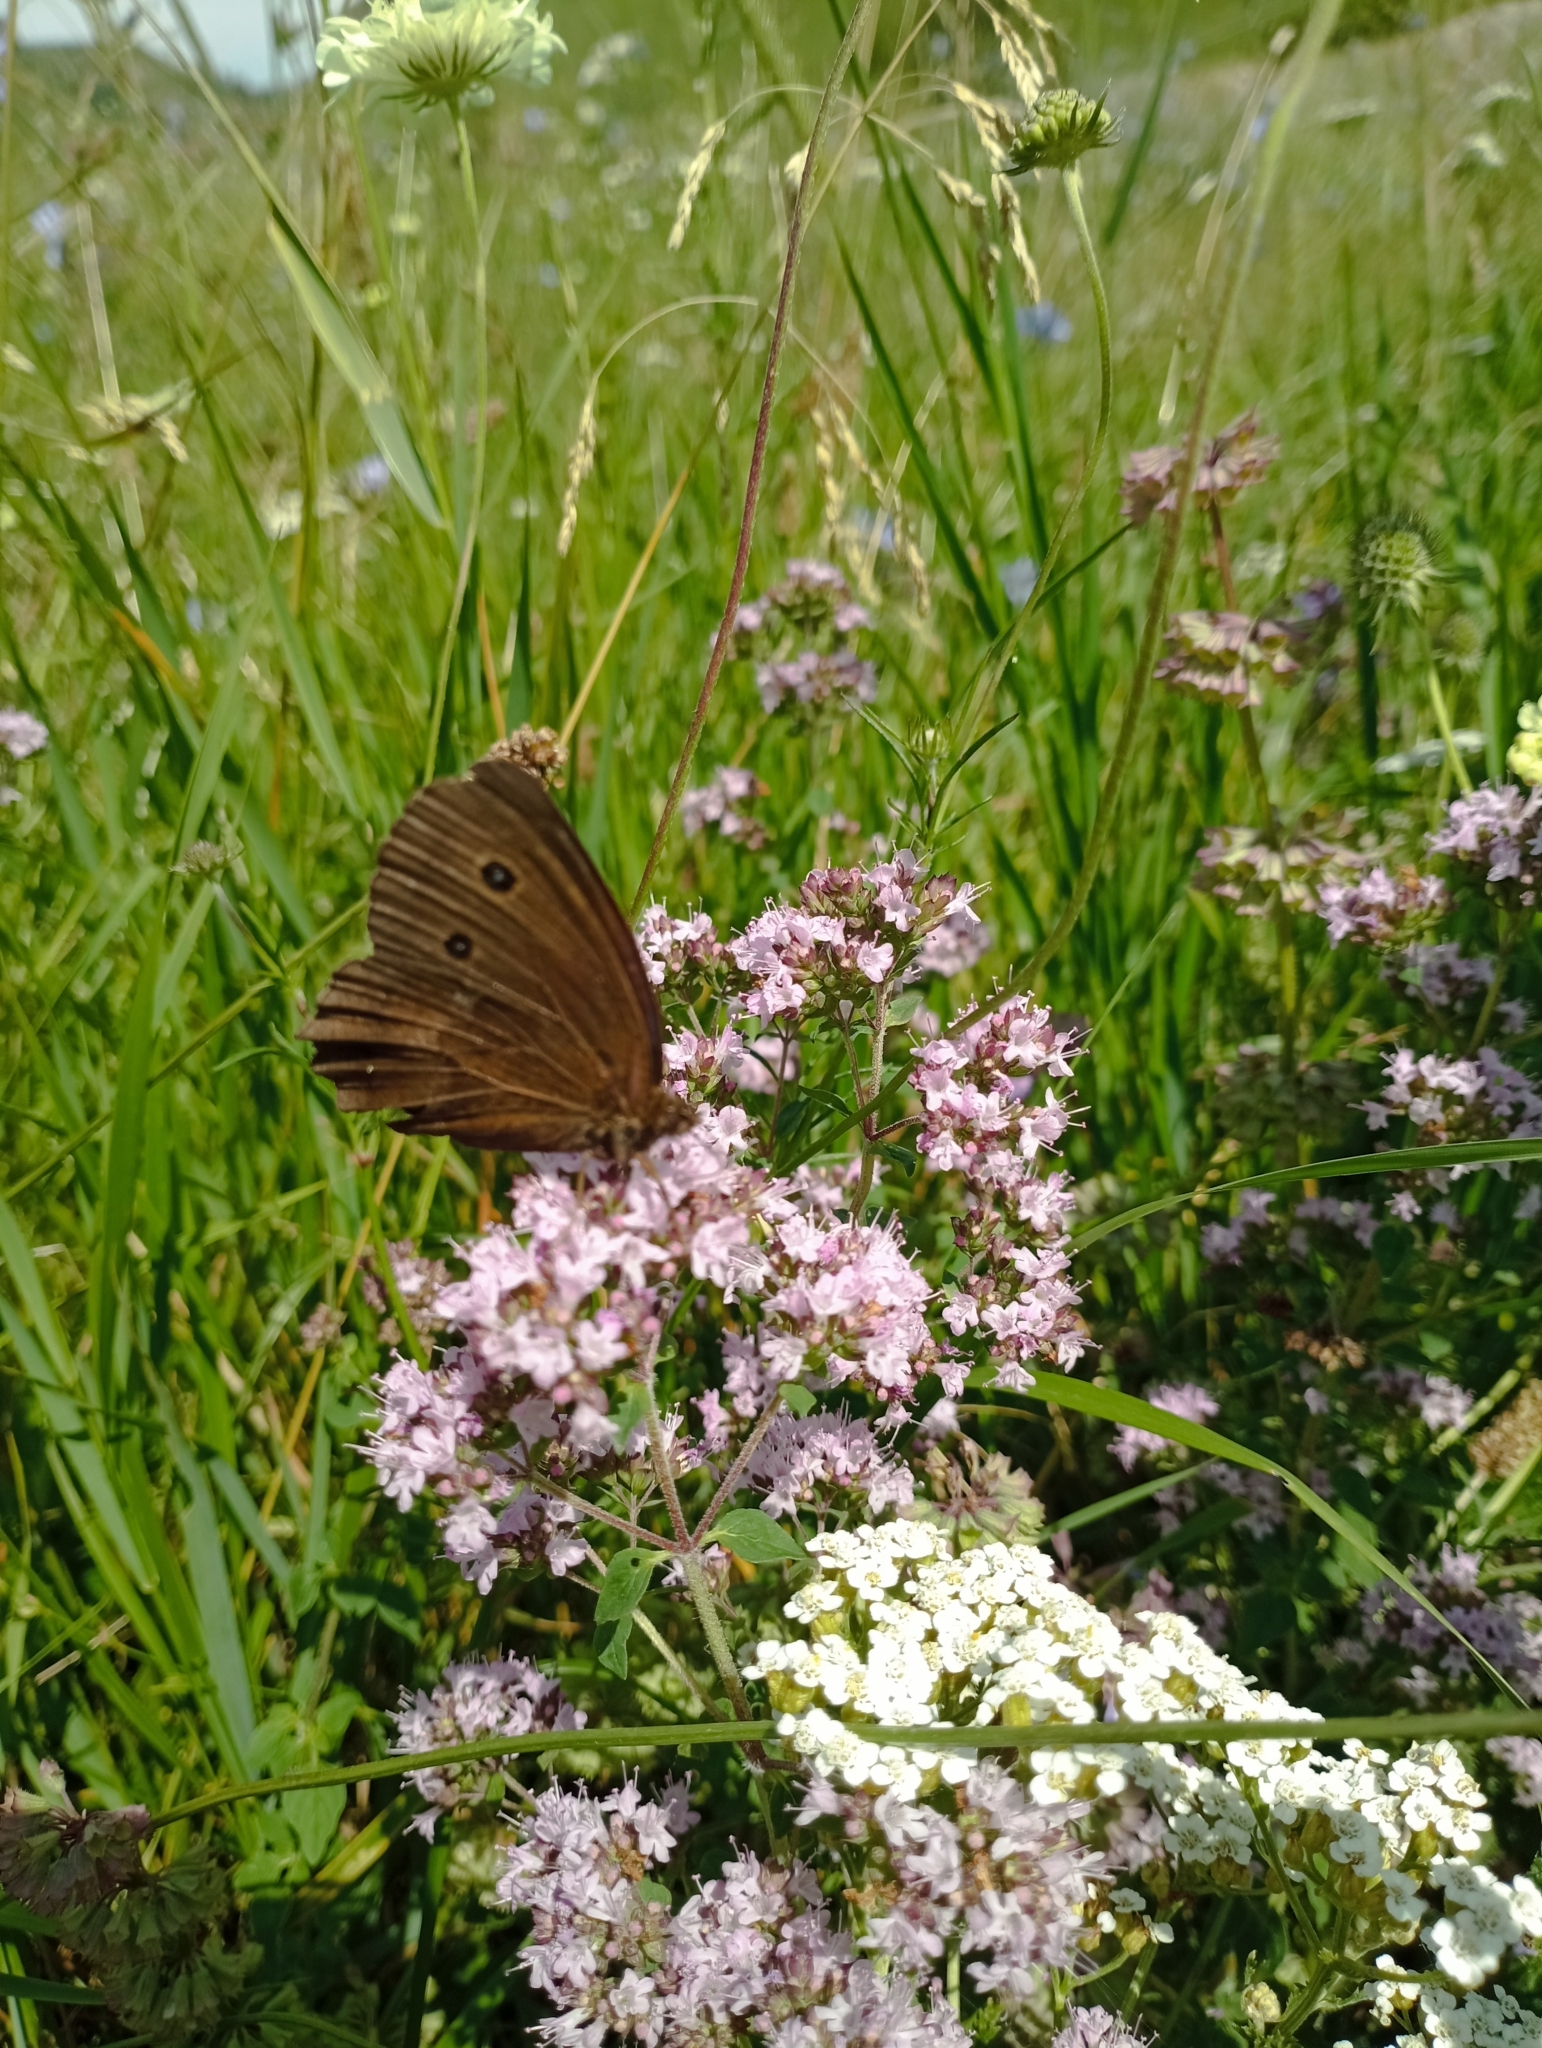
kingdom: Animalia
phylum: Arthropoda
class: Insecta
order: Lepidoptera
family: Nymphalidae
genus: Minois
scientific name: Minois dryas
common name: Dryad
